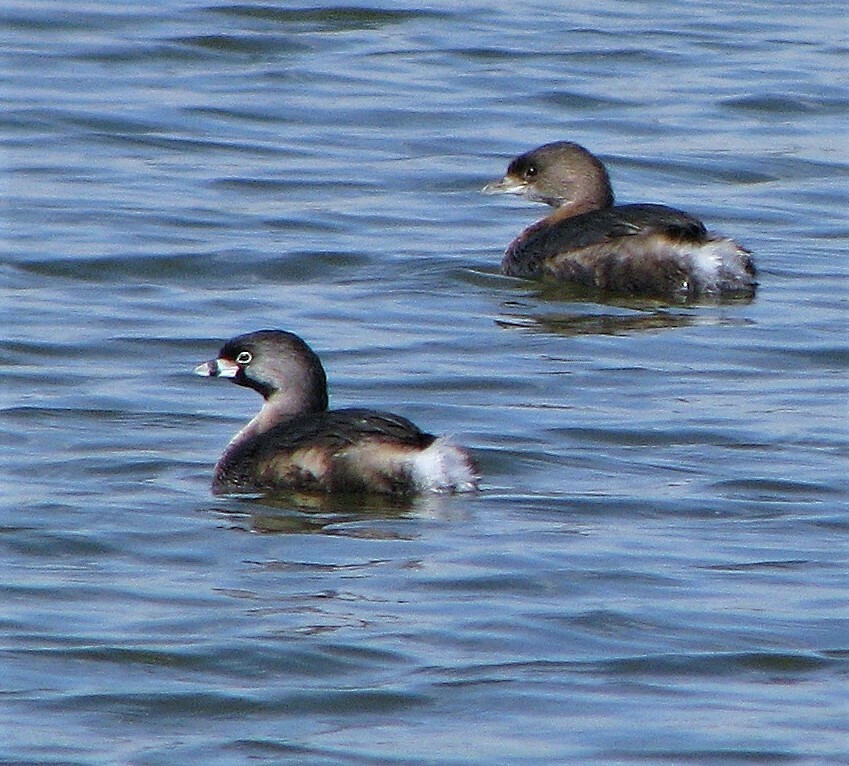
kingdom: Animalia
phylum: Chordata
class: Aves
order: Podicipediformes
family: Podicipedidae
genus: Podilymbus
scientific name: Podilymbus podiceps
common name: Pied-billed grebe
